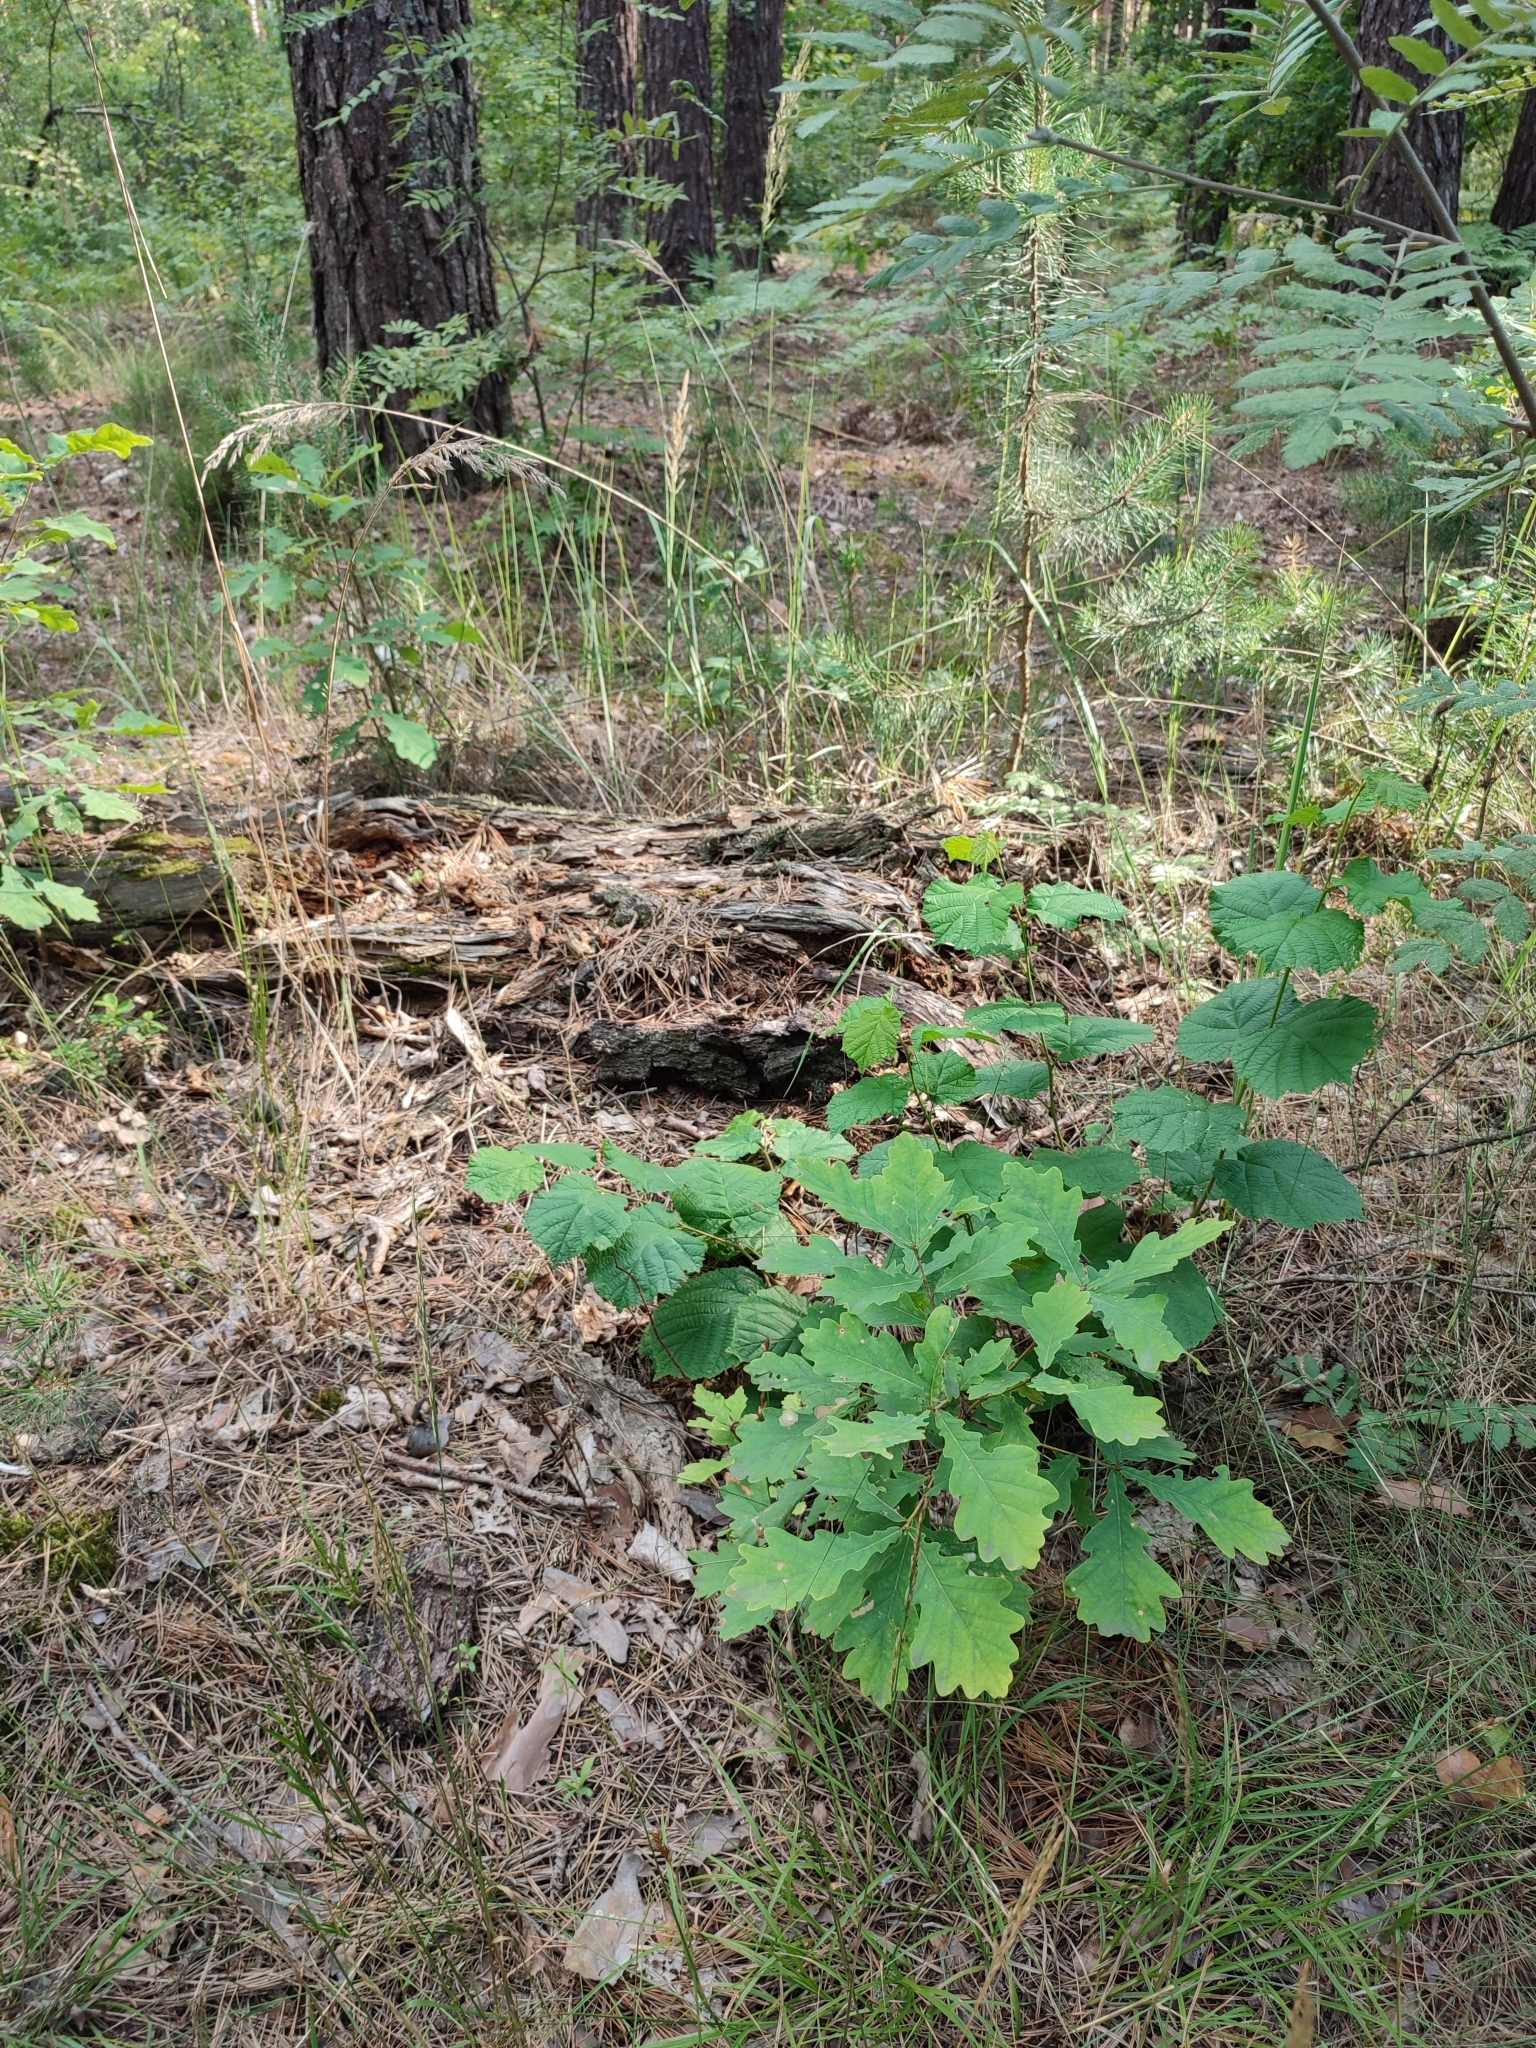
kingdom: Plantae
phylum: Tracheophyta
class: Magnoliopsida
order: Fagales
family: Fagaceae
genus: Quercus
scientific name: Quercus robur
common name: Pedunculate oak
